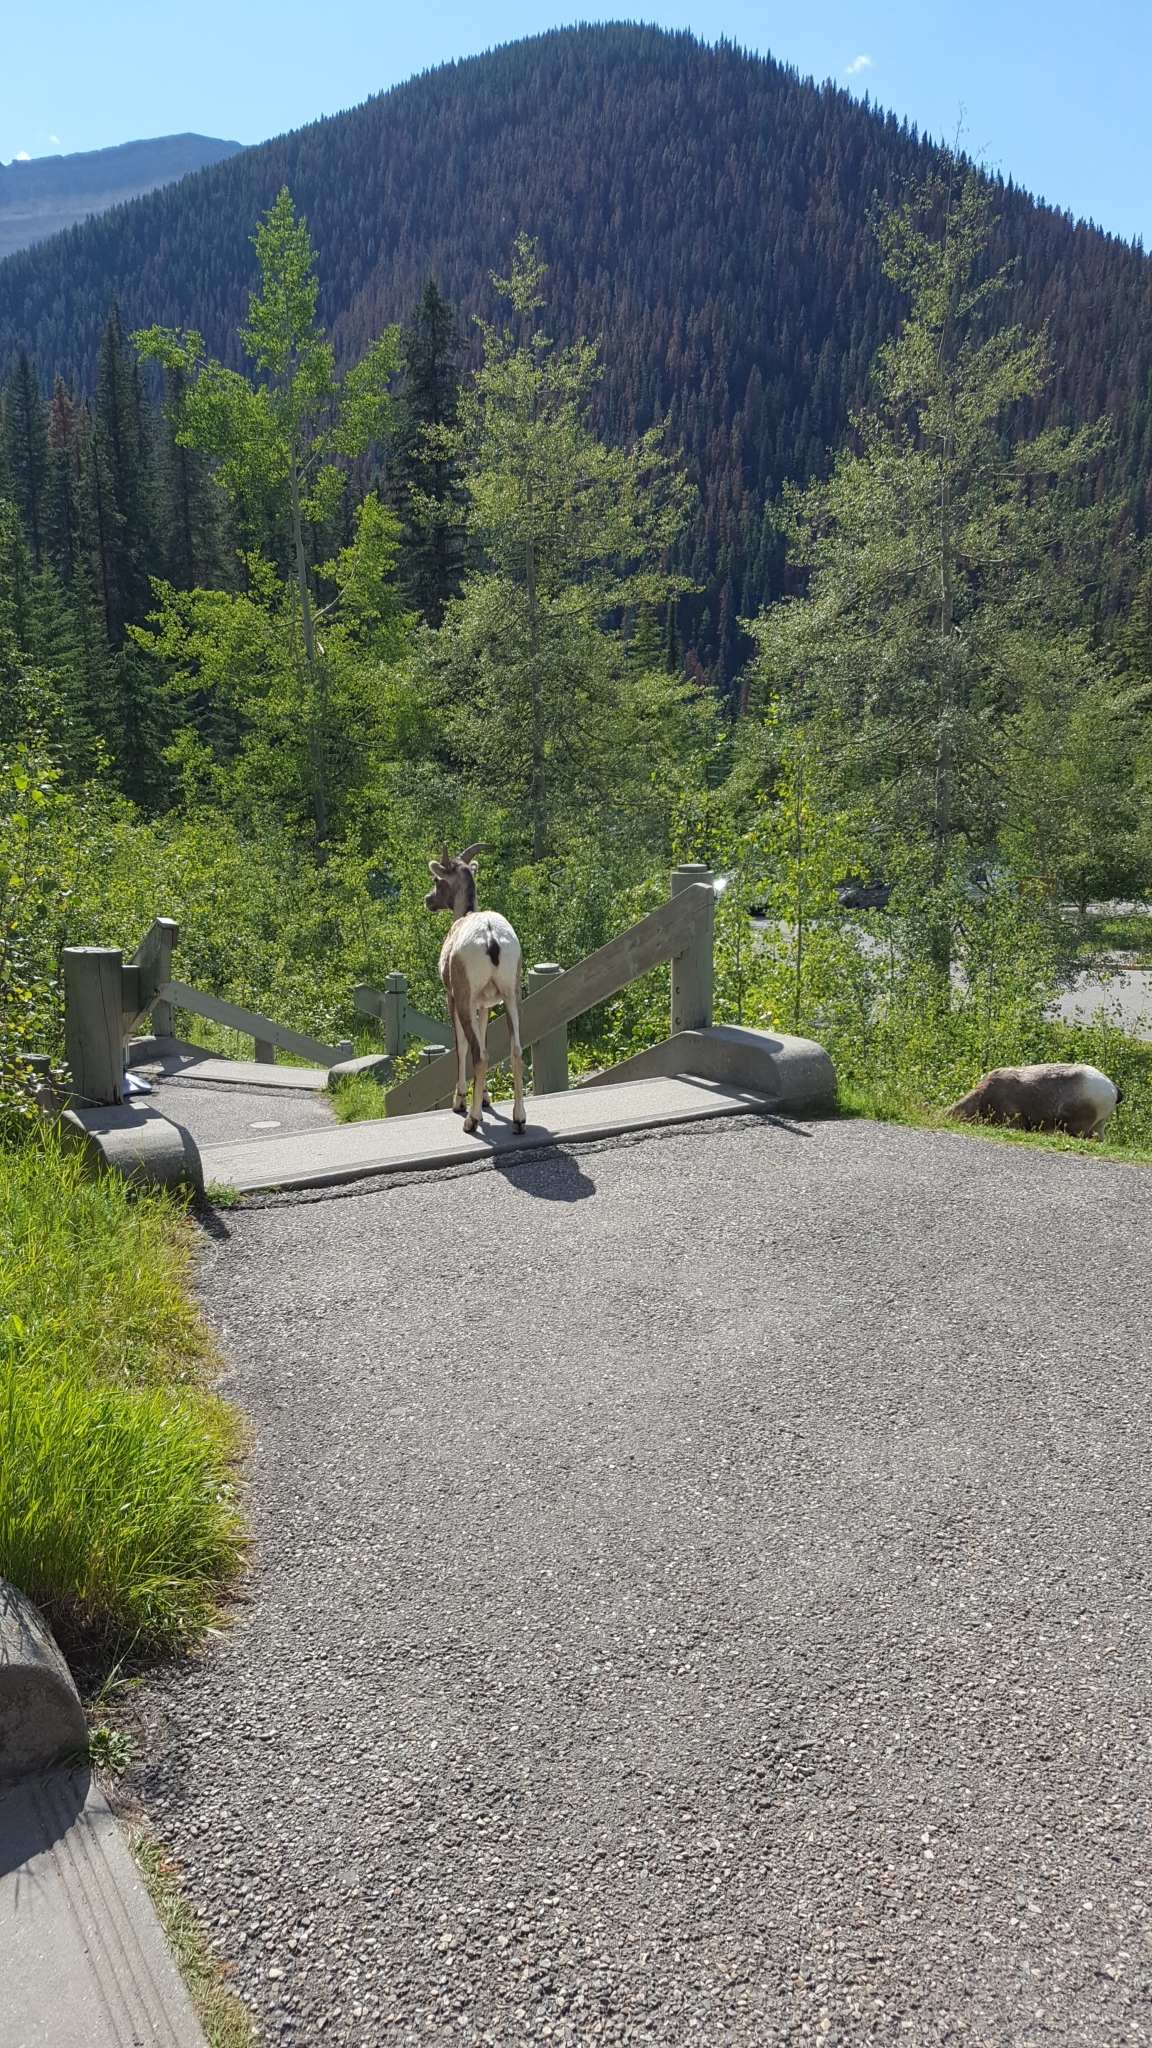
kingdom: Animalia
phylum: Chordata
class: Mammalia
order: Artiodactyla
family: Bovidae
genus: Ovis
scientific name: Ovis canadensis
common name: Bighorn sheep
